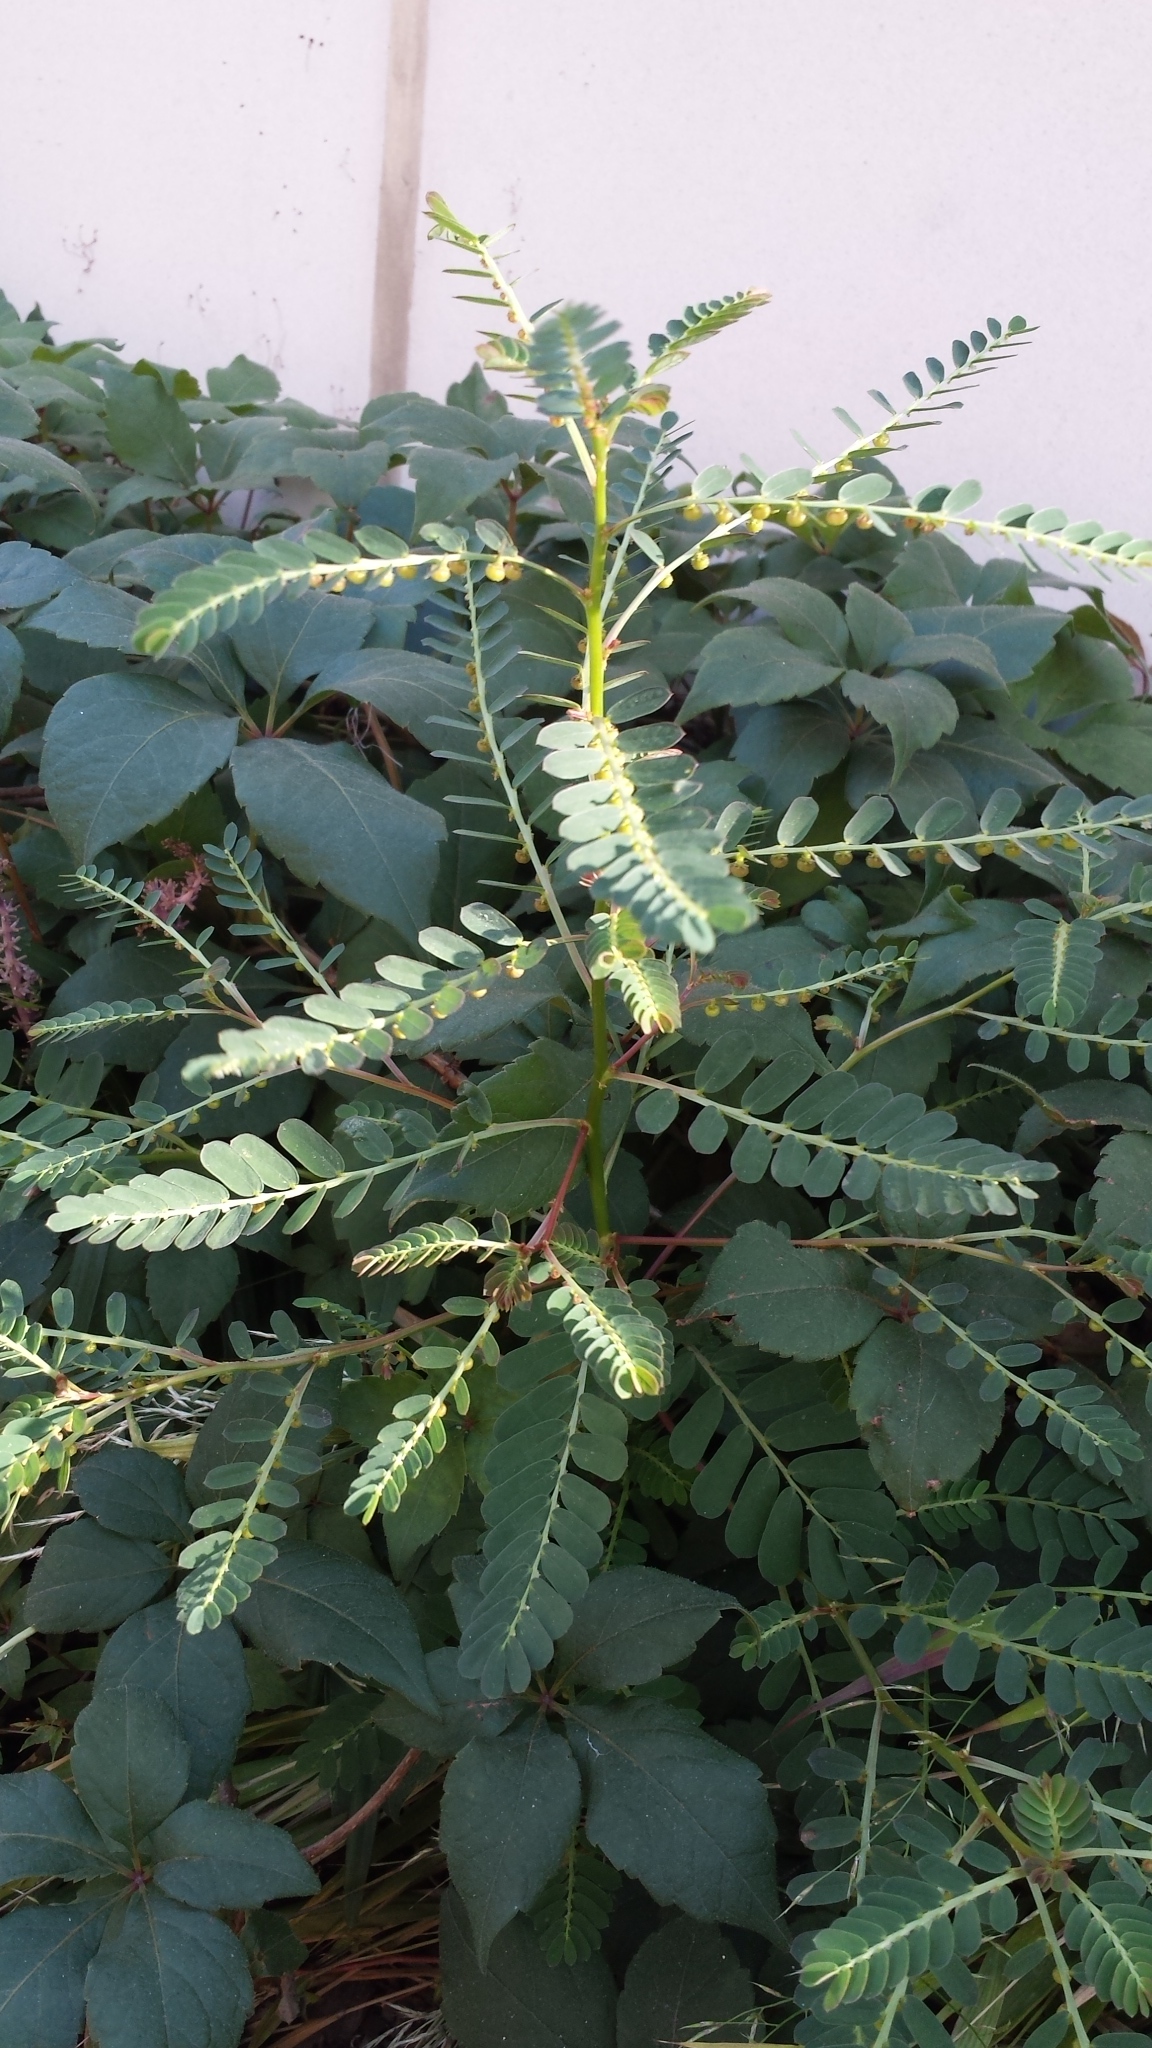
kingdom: Plantae
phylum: Tracheophyta
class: Magnoliopsida
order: Malpighiales
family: Phyllanthaceae
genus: Phyllanthus
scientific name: Phyllanthus urinaria
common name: Chamber bitter
